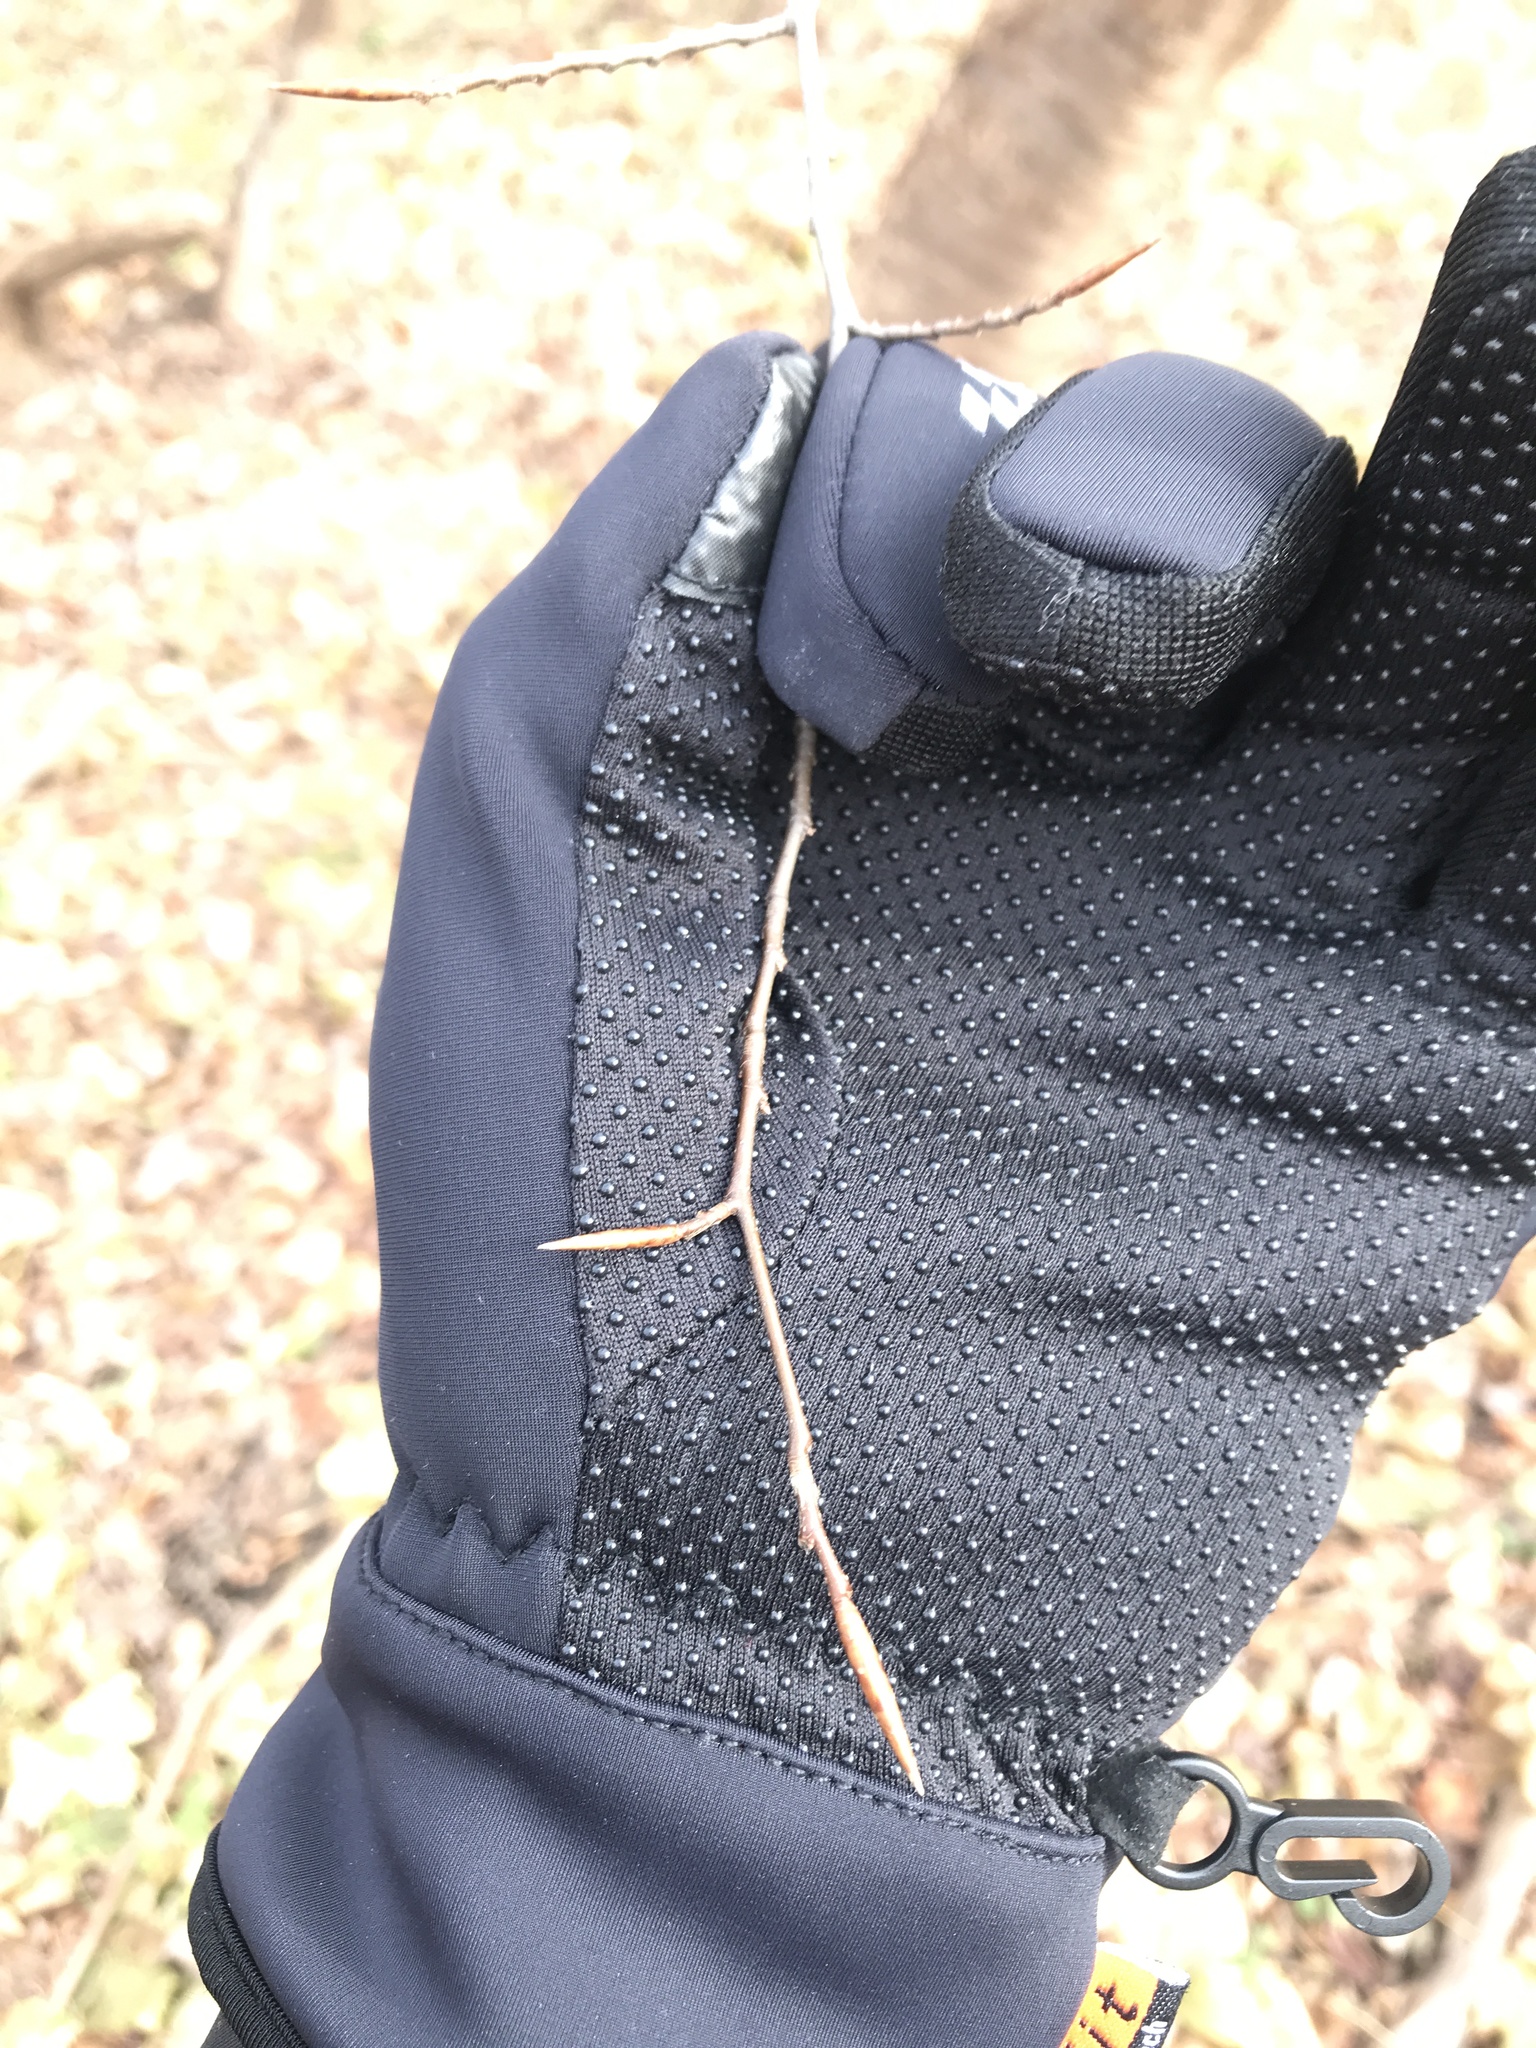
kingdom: Plantae
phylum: Tracheophyta
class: Magnoliopsida
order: Fagales
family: Fagaceae
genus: Fagus
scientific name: Fagus grandifolia
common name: American beech
